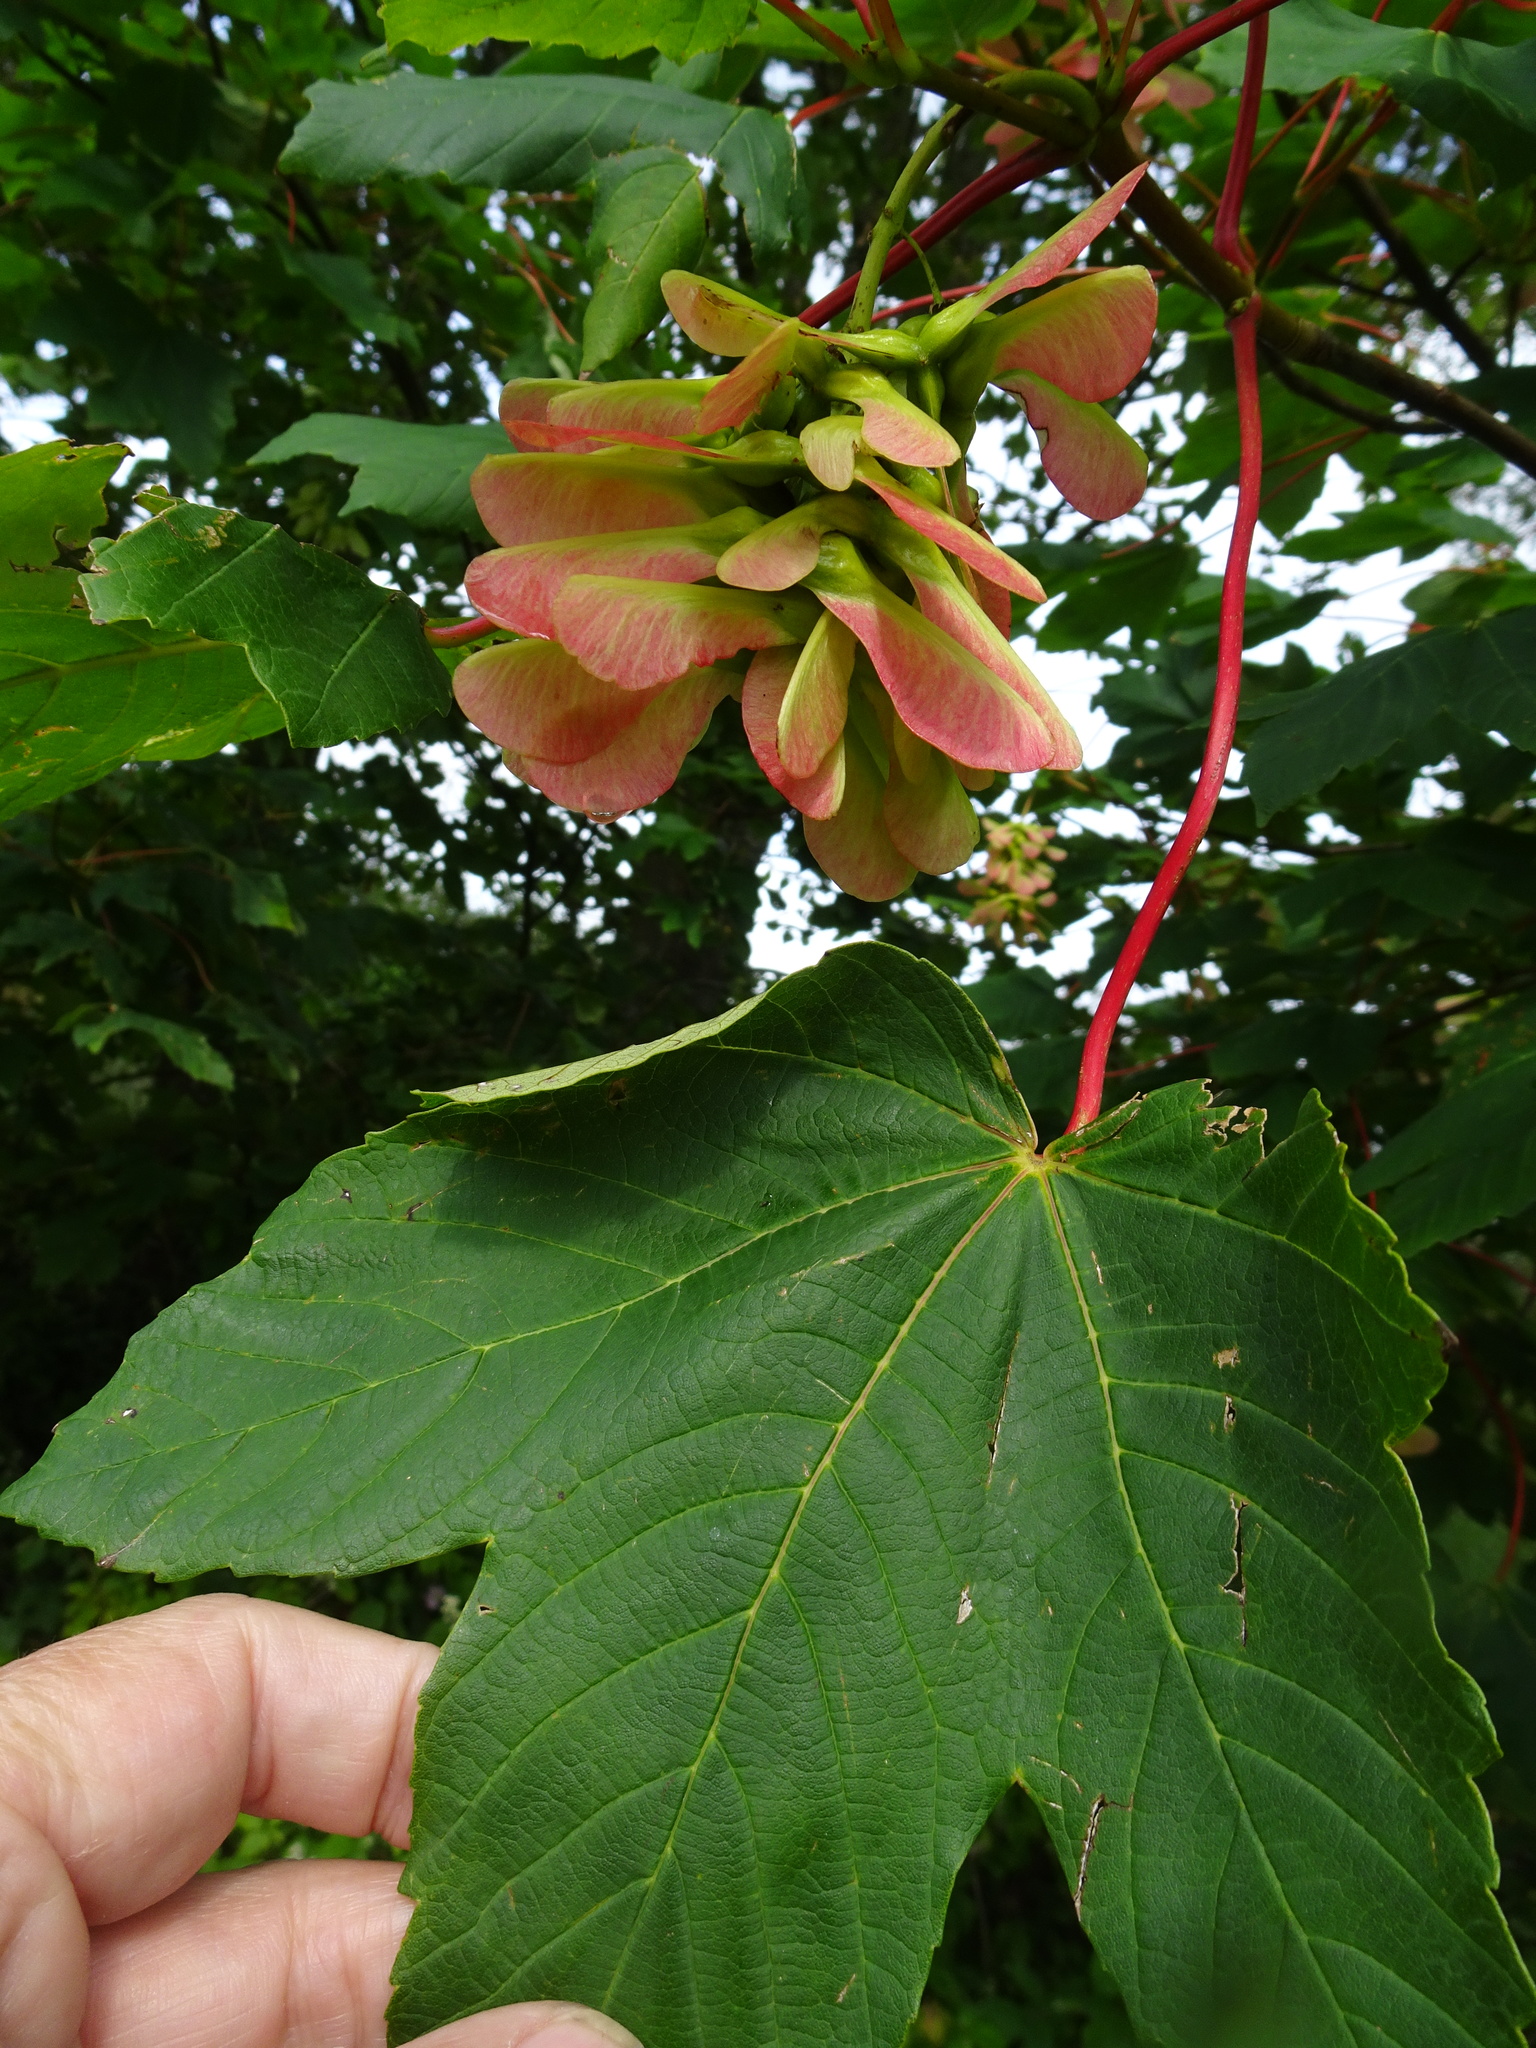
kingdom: Plantae
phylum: Tracheophyta
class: Magnoliopsida
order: Sapindales
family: Sapindaceae
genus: Acer
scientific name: Acer pseudoplatanus
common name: Sycamore
